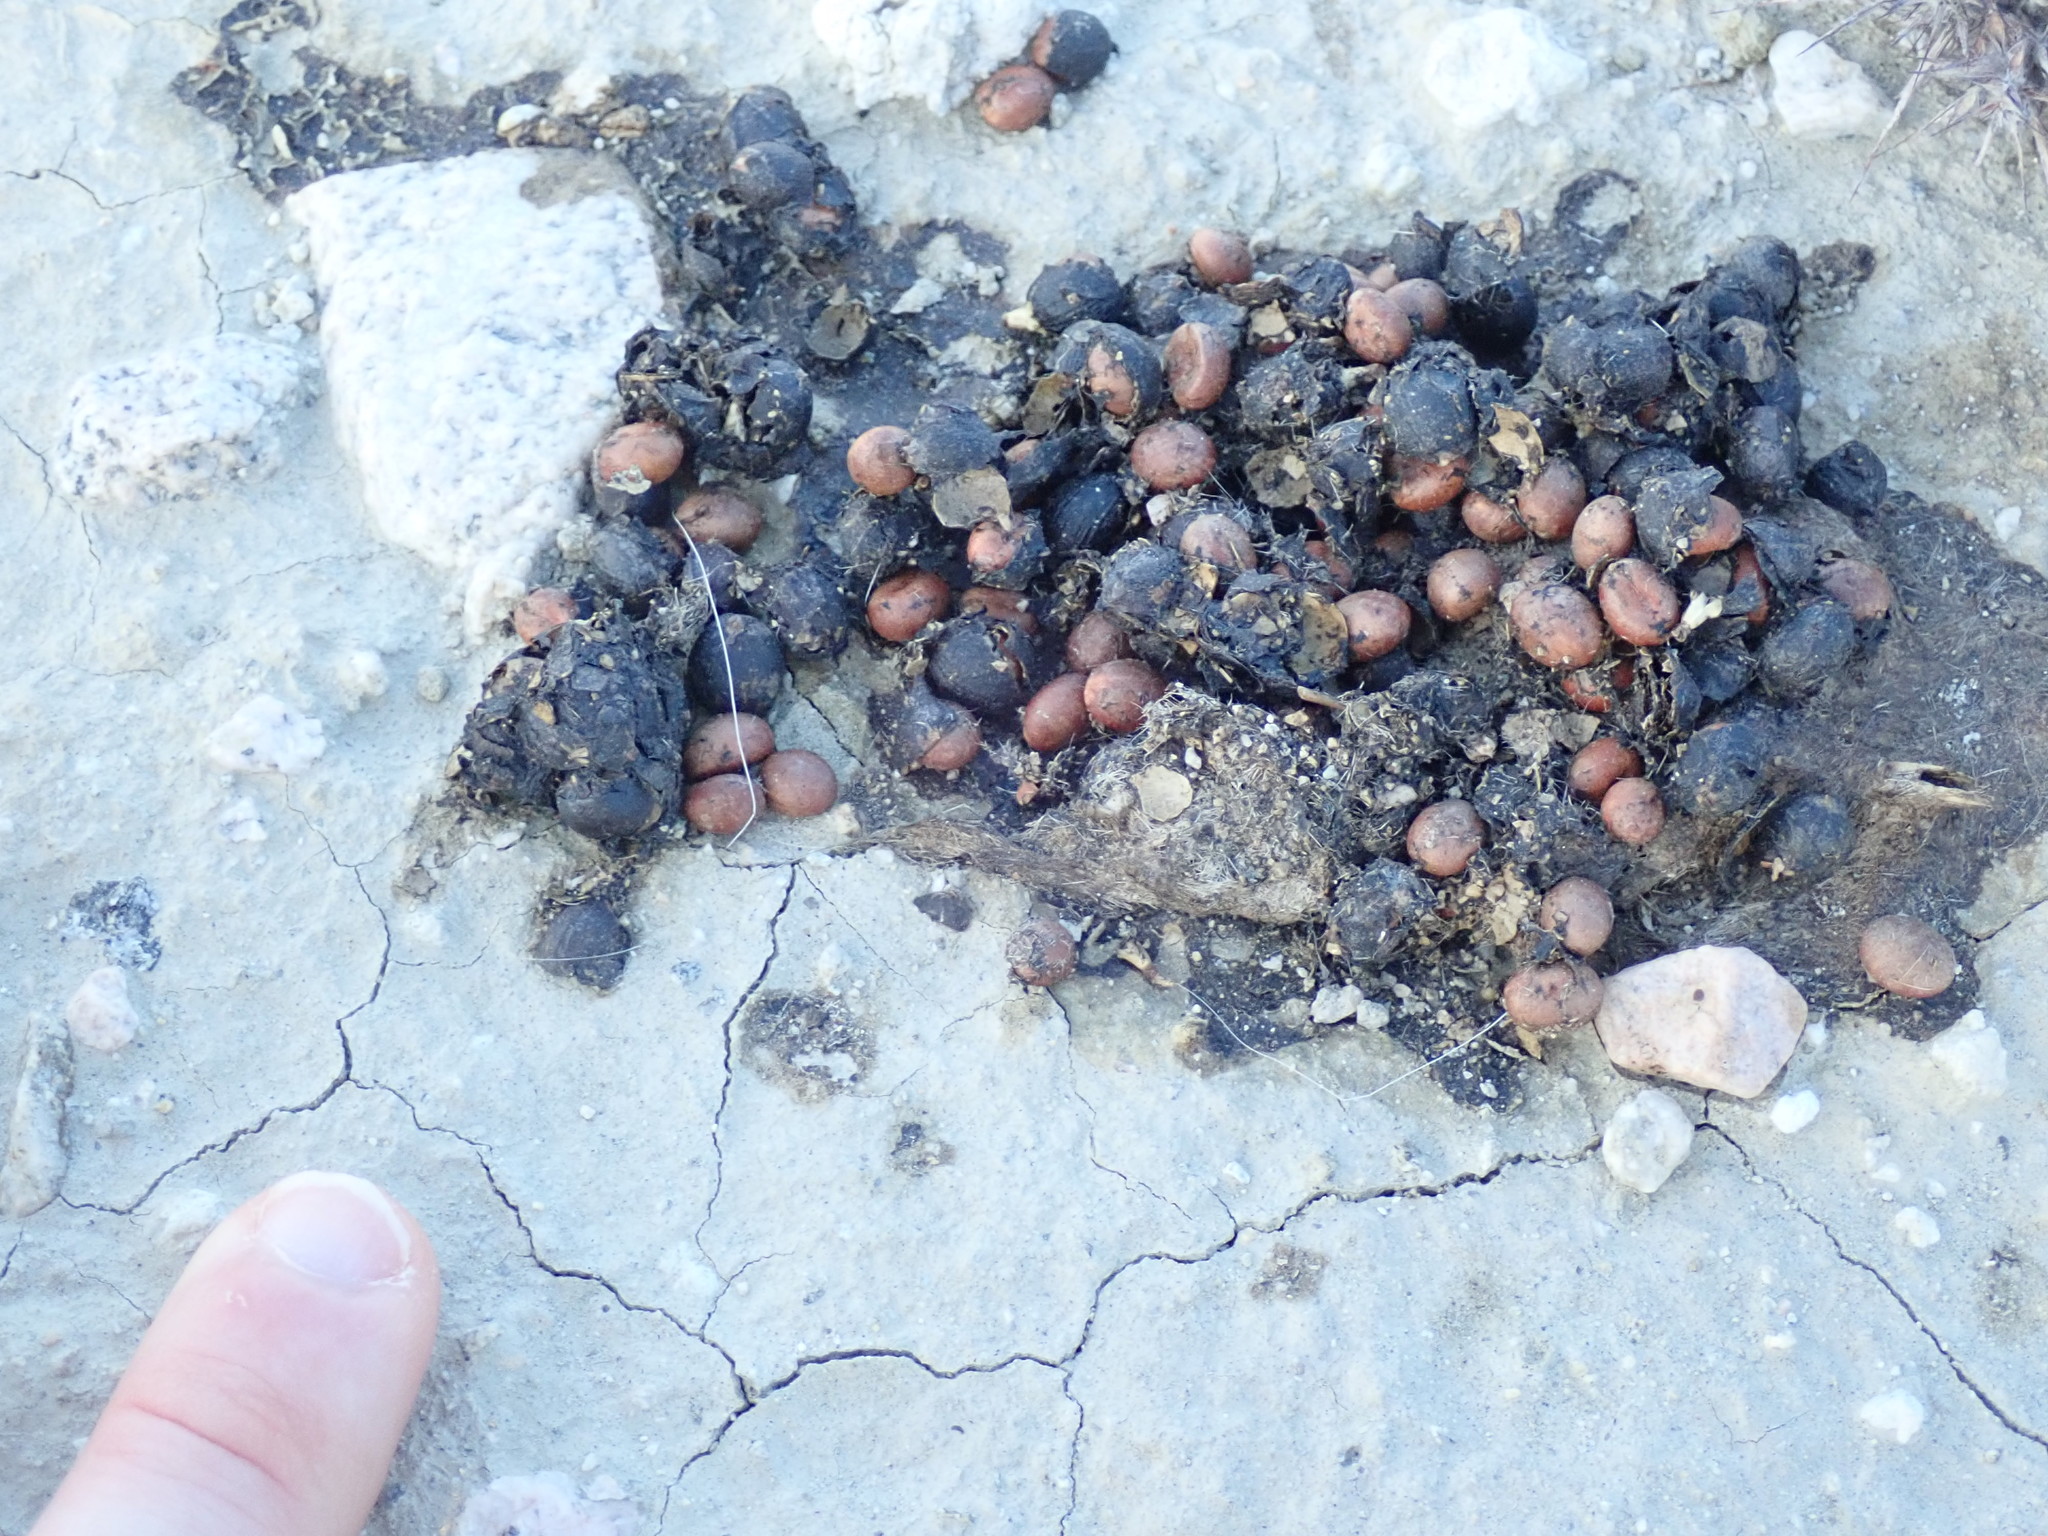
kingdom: Animalia
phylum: Chordata
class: Mammalia
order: Carnivora
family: Canidae
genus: Canis
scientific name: Canis latrans
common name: Coyote
